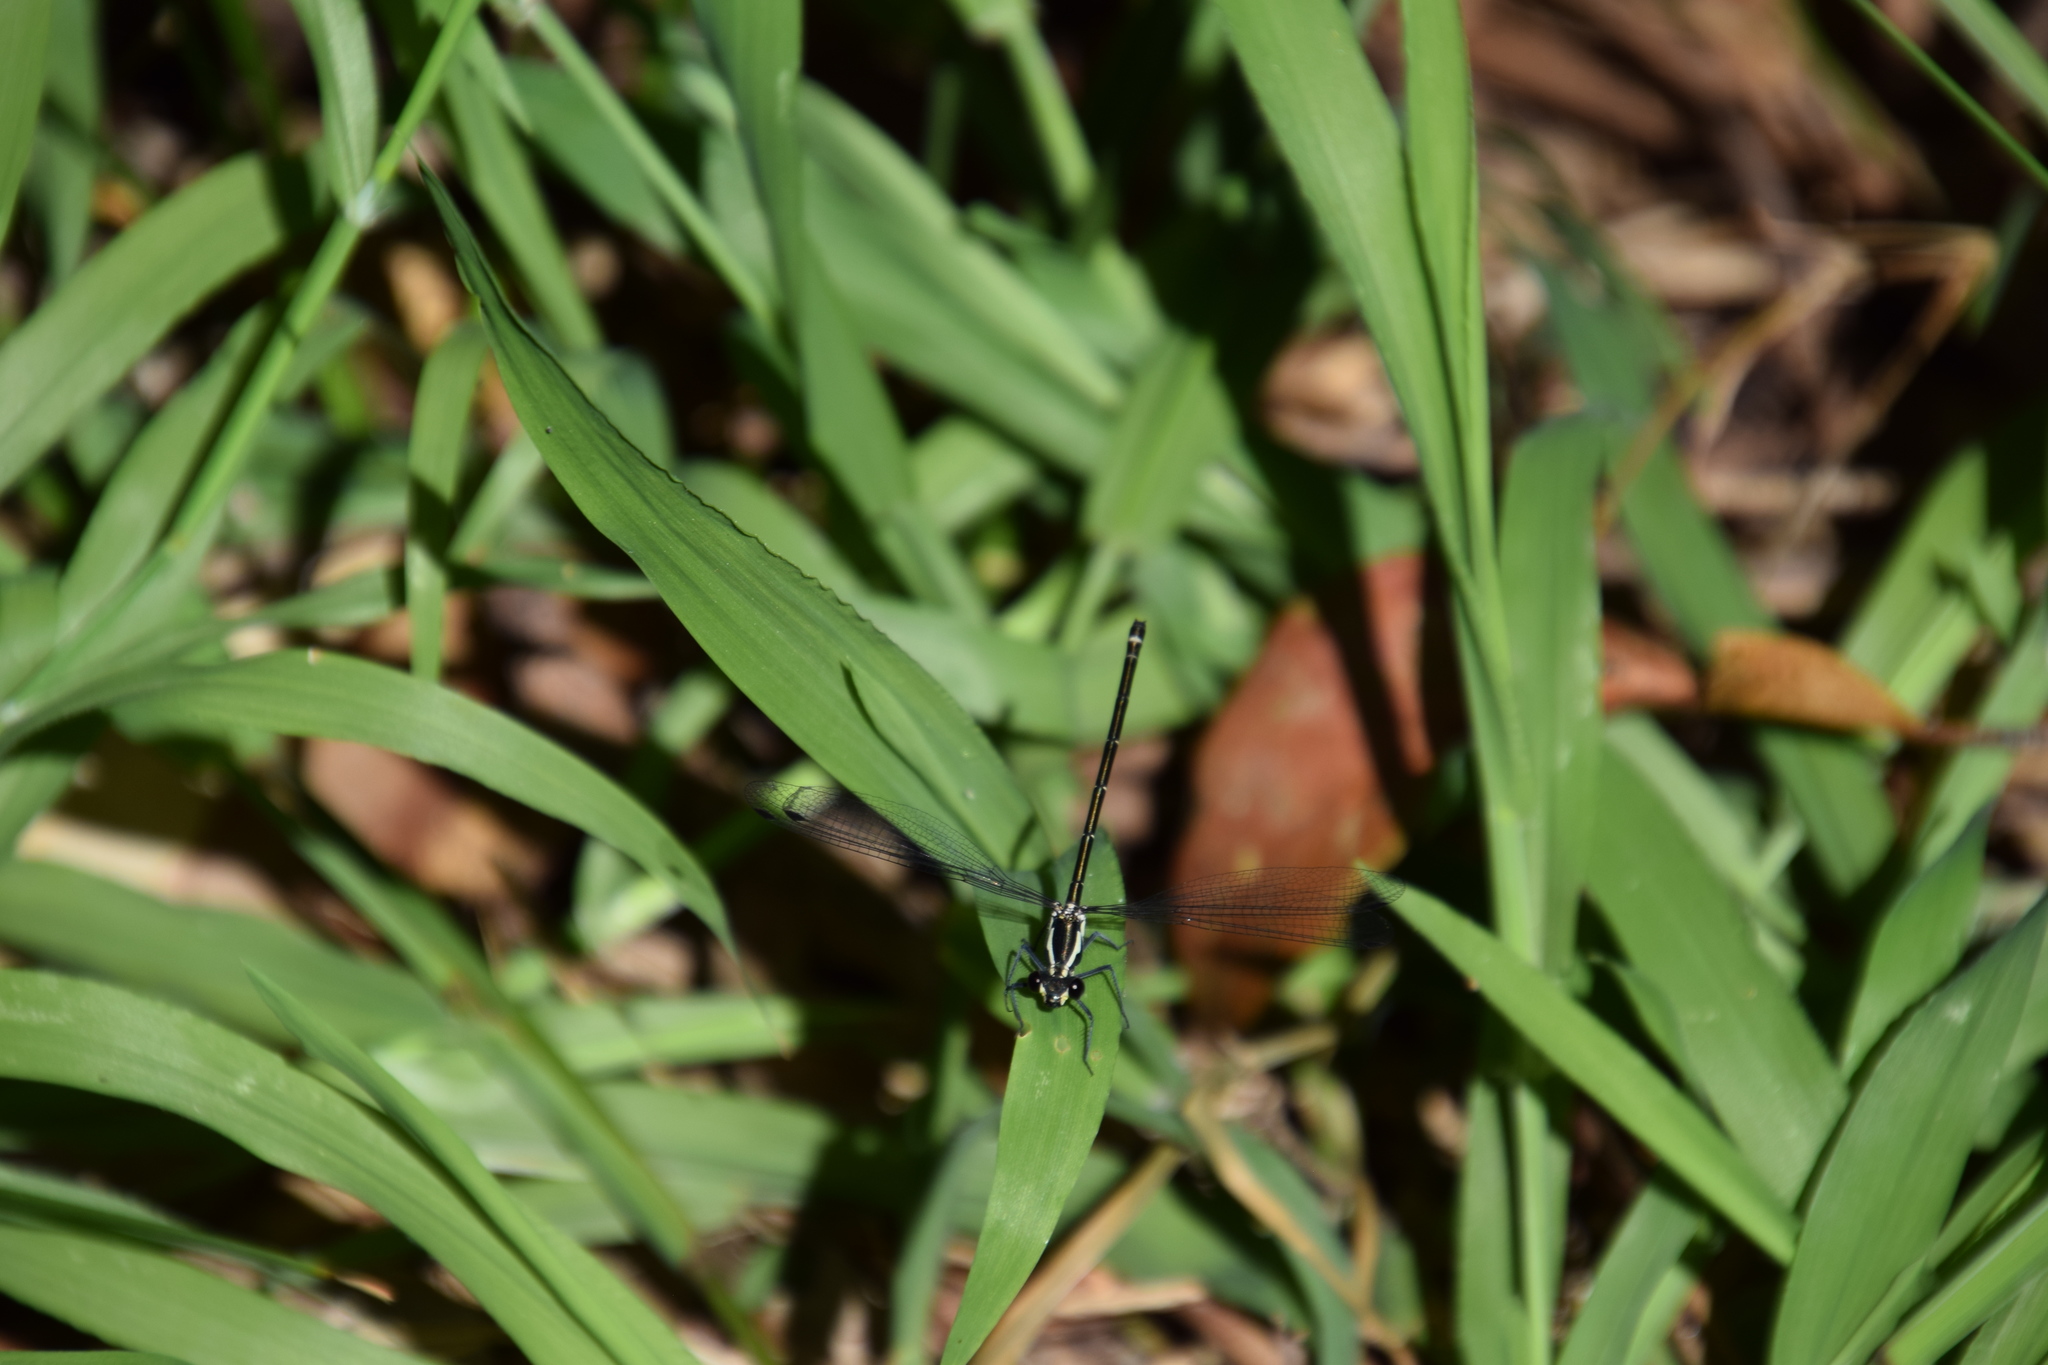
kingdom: Animalia
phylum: Arthropoda
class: Insecta
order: Odonata
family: Argiolestidae
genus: Austroargiolestes
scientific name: Austroargiolestes icteromelas
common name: Common flatwing
